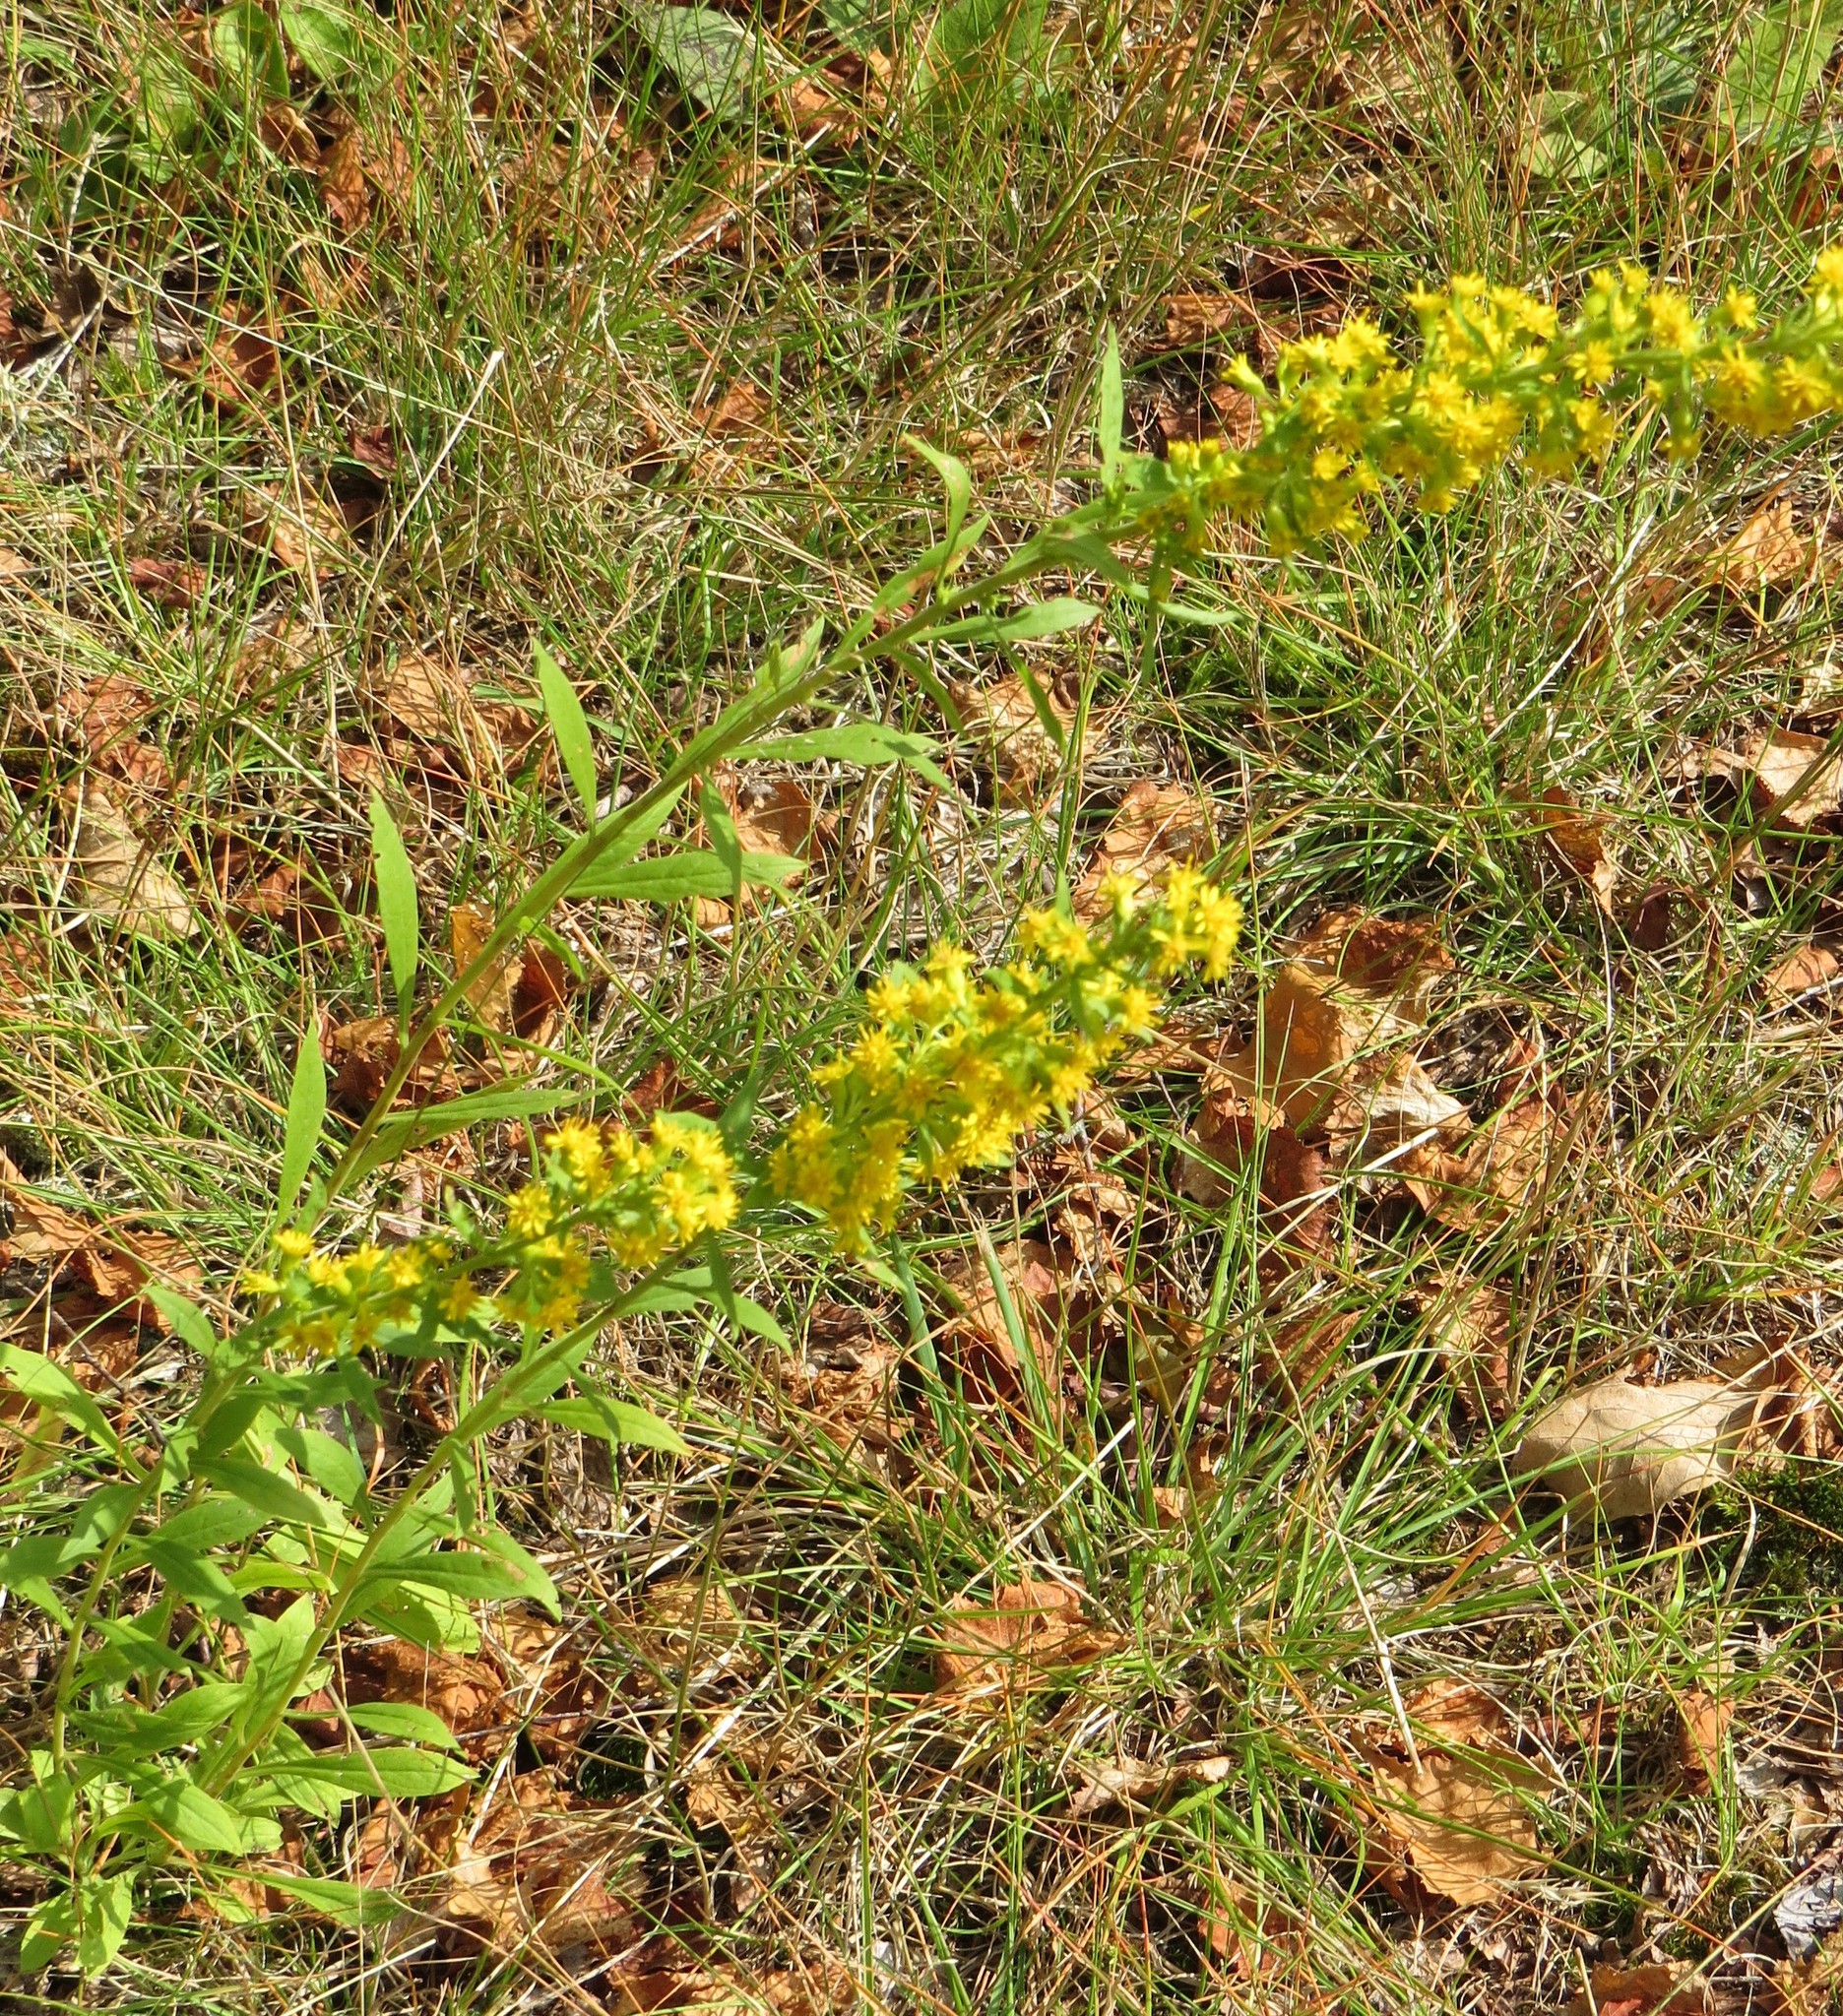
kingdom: Plantae
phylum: Tracheophyta
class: Magnoliopsida
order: Asterales
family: Asteraceae
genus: Solidago
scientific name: Solidago puberula
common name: Downy goldenrod
